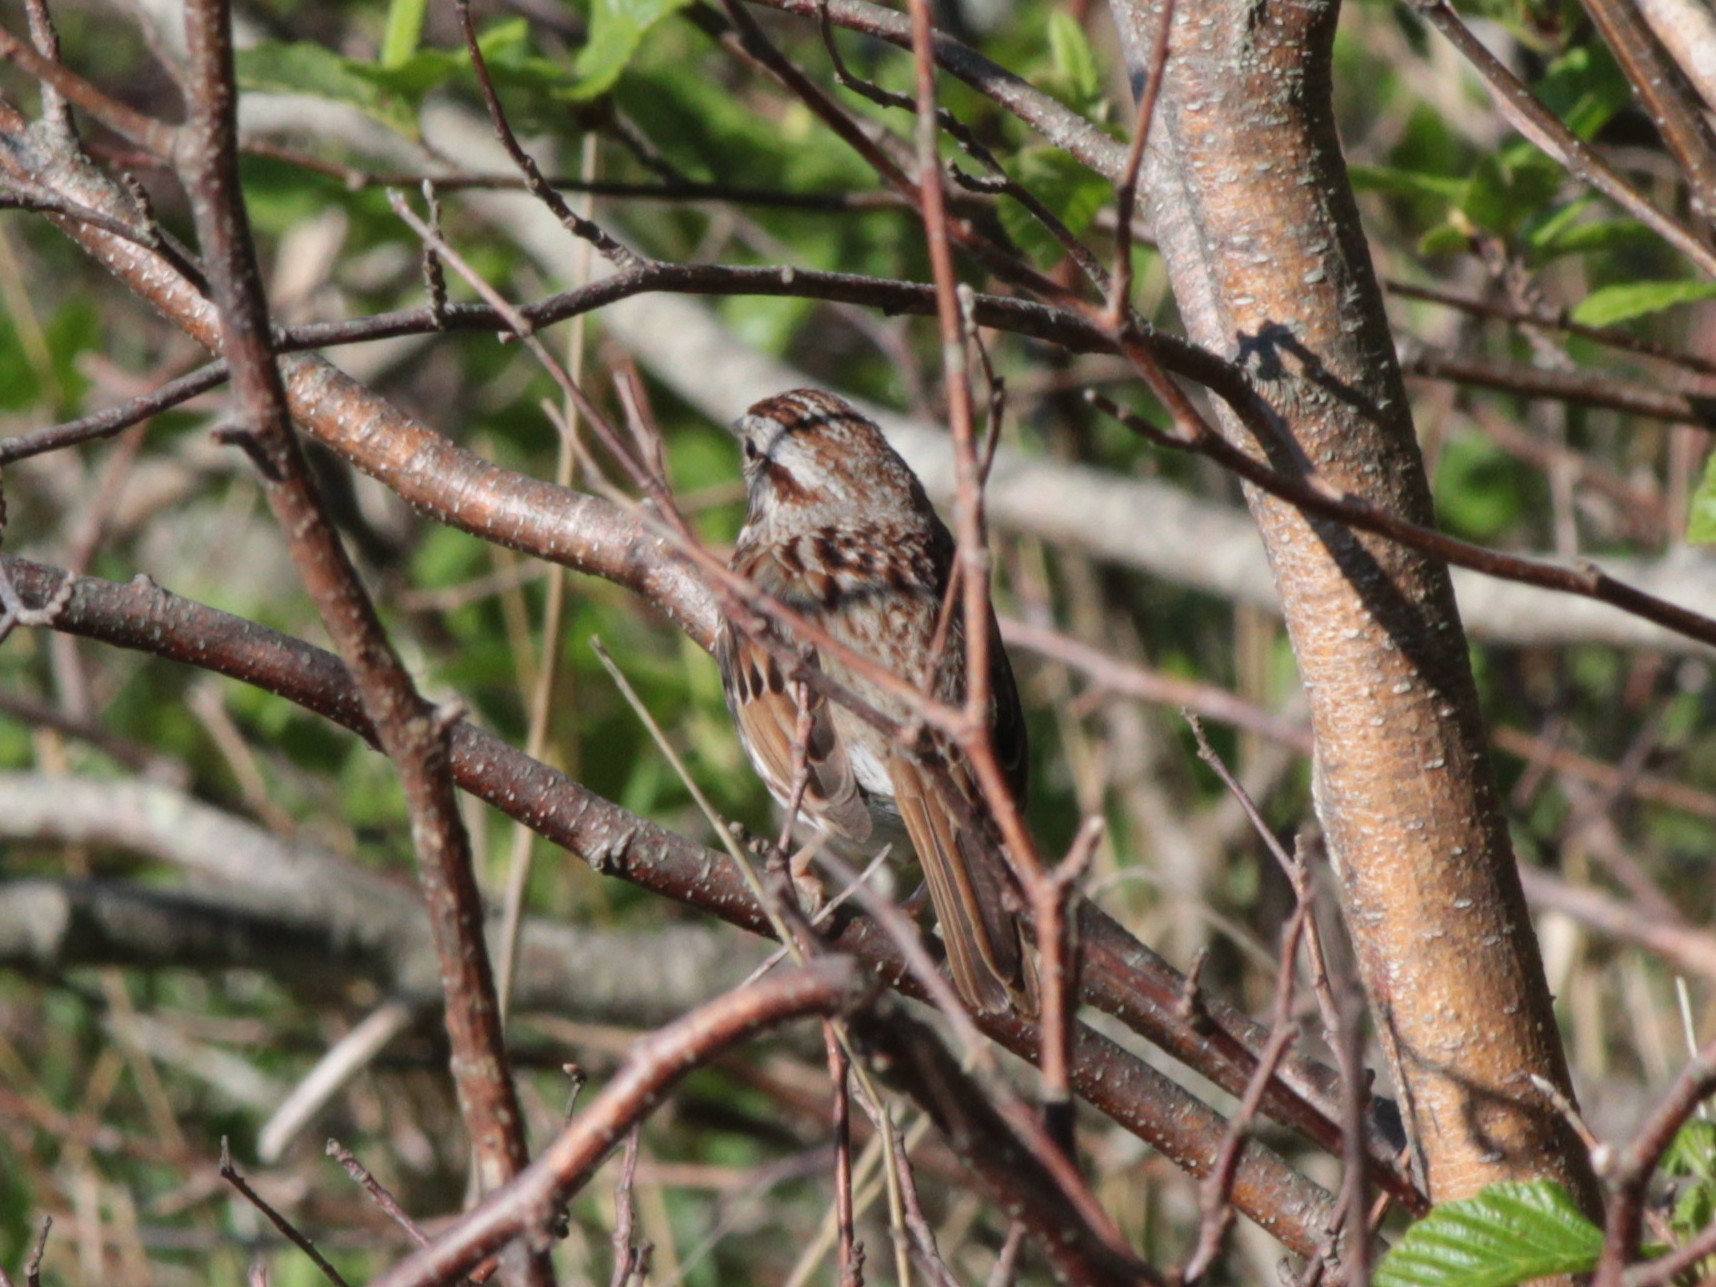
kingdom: Animalia
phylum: Chordata
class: Aves
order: Passeriformes
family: Passerellidae
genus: Melospiza
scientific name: Melospiza melodia
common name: Song sparrow
